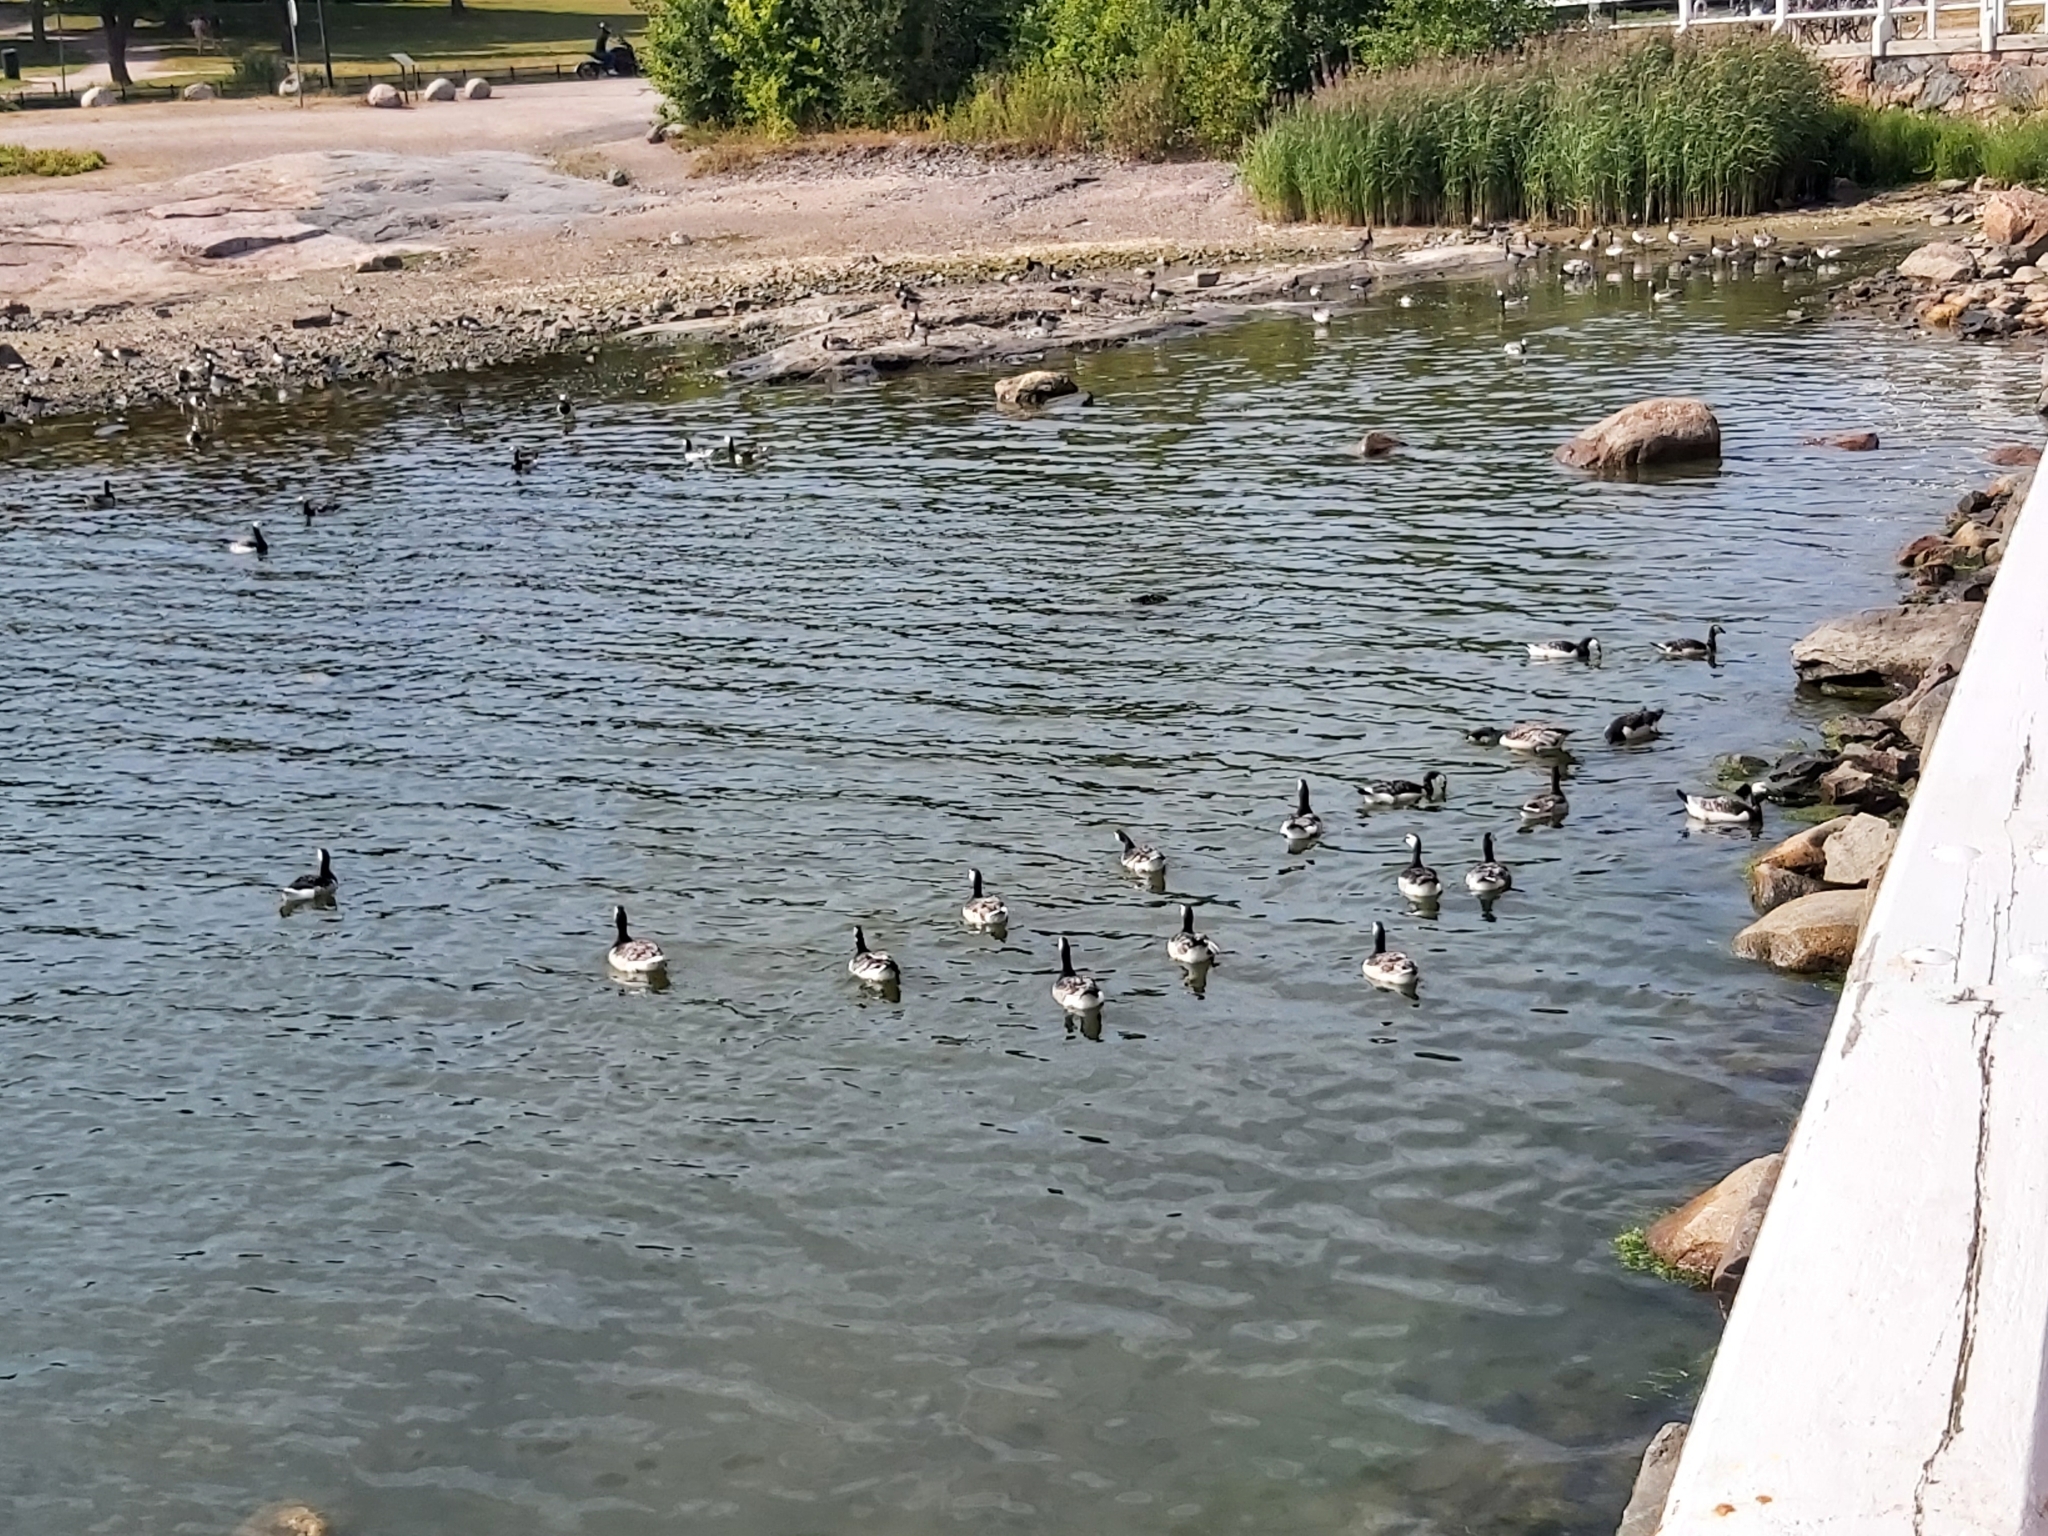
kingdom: Animalia
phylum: Chordata
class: Aves
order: Anseriformes
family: Anatidae
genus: Branta
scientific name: Branta leucopsis
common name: Barnacle goose
